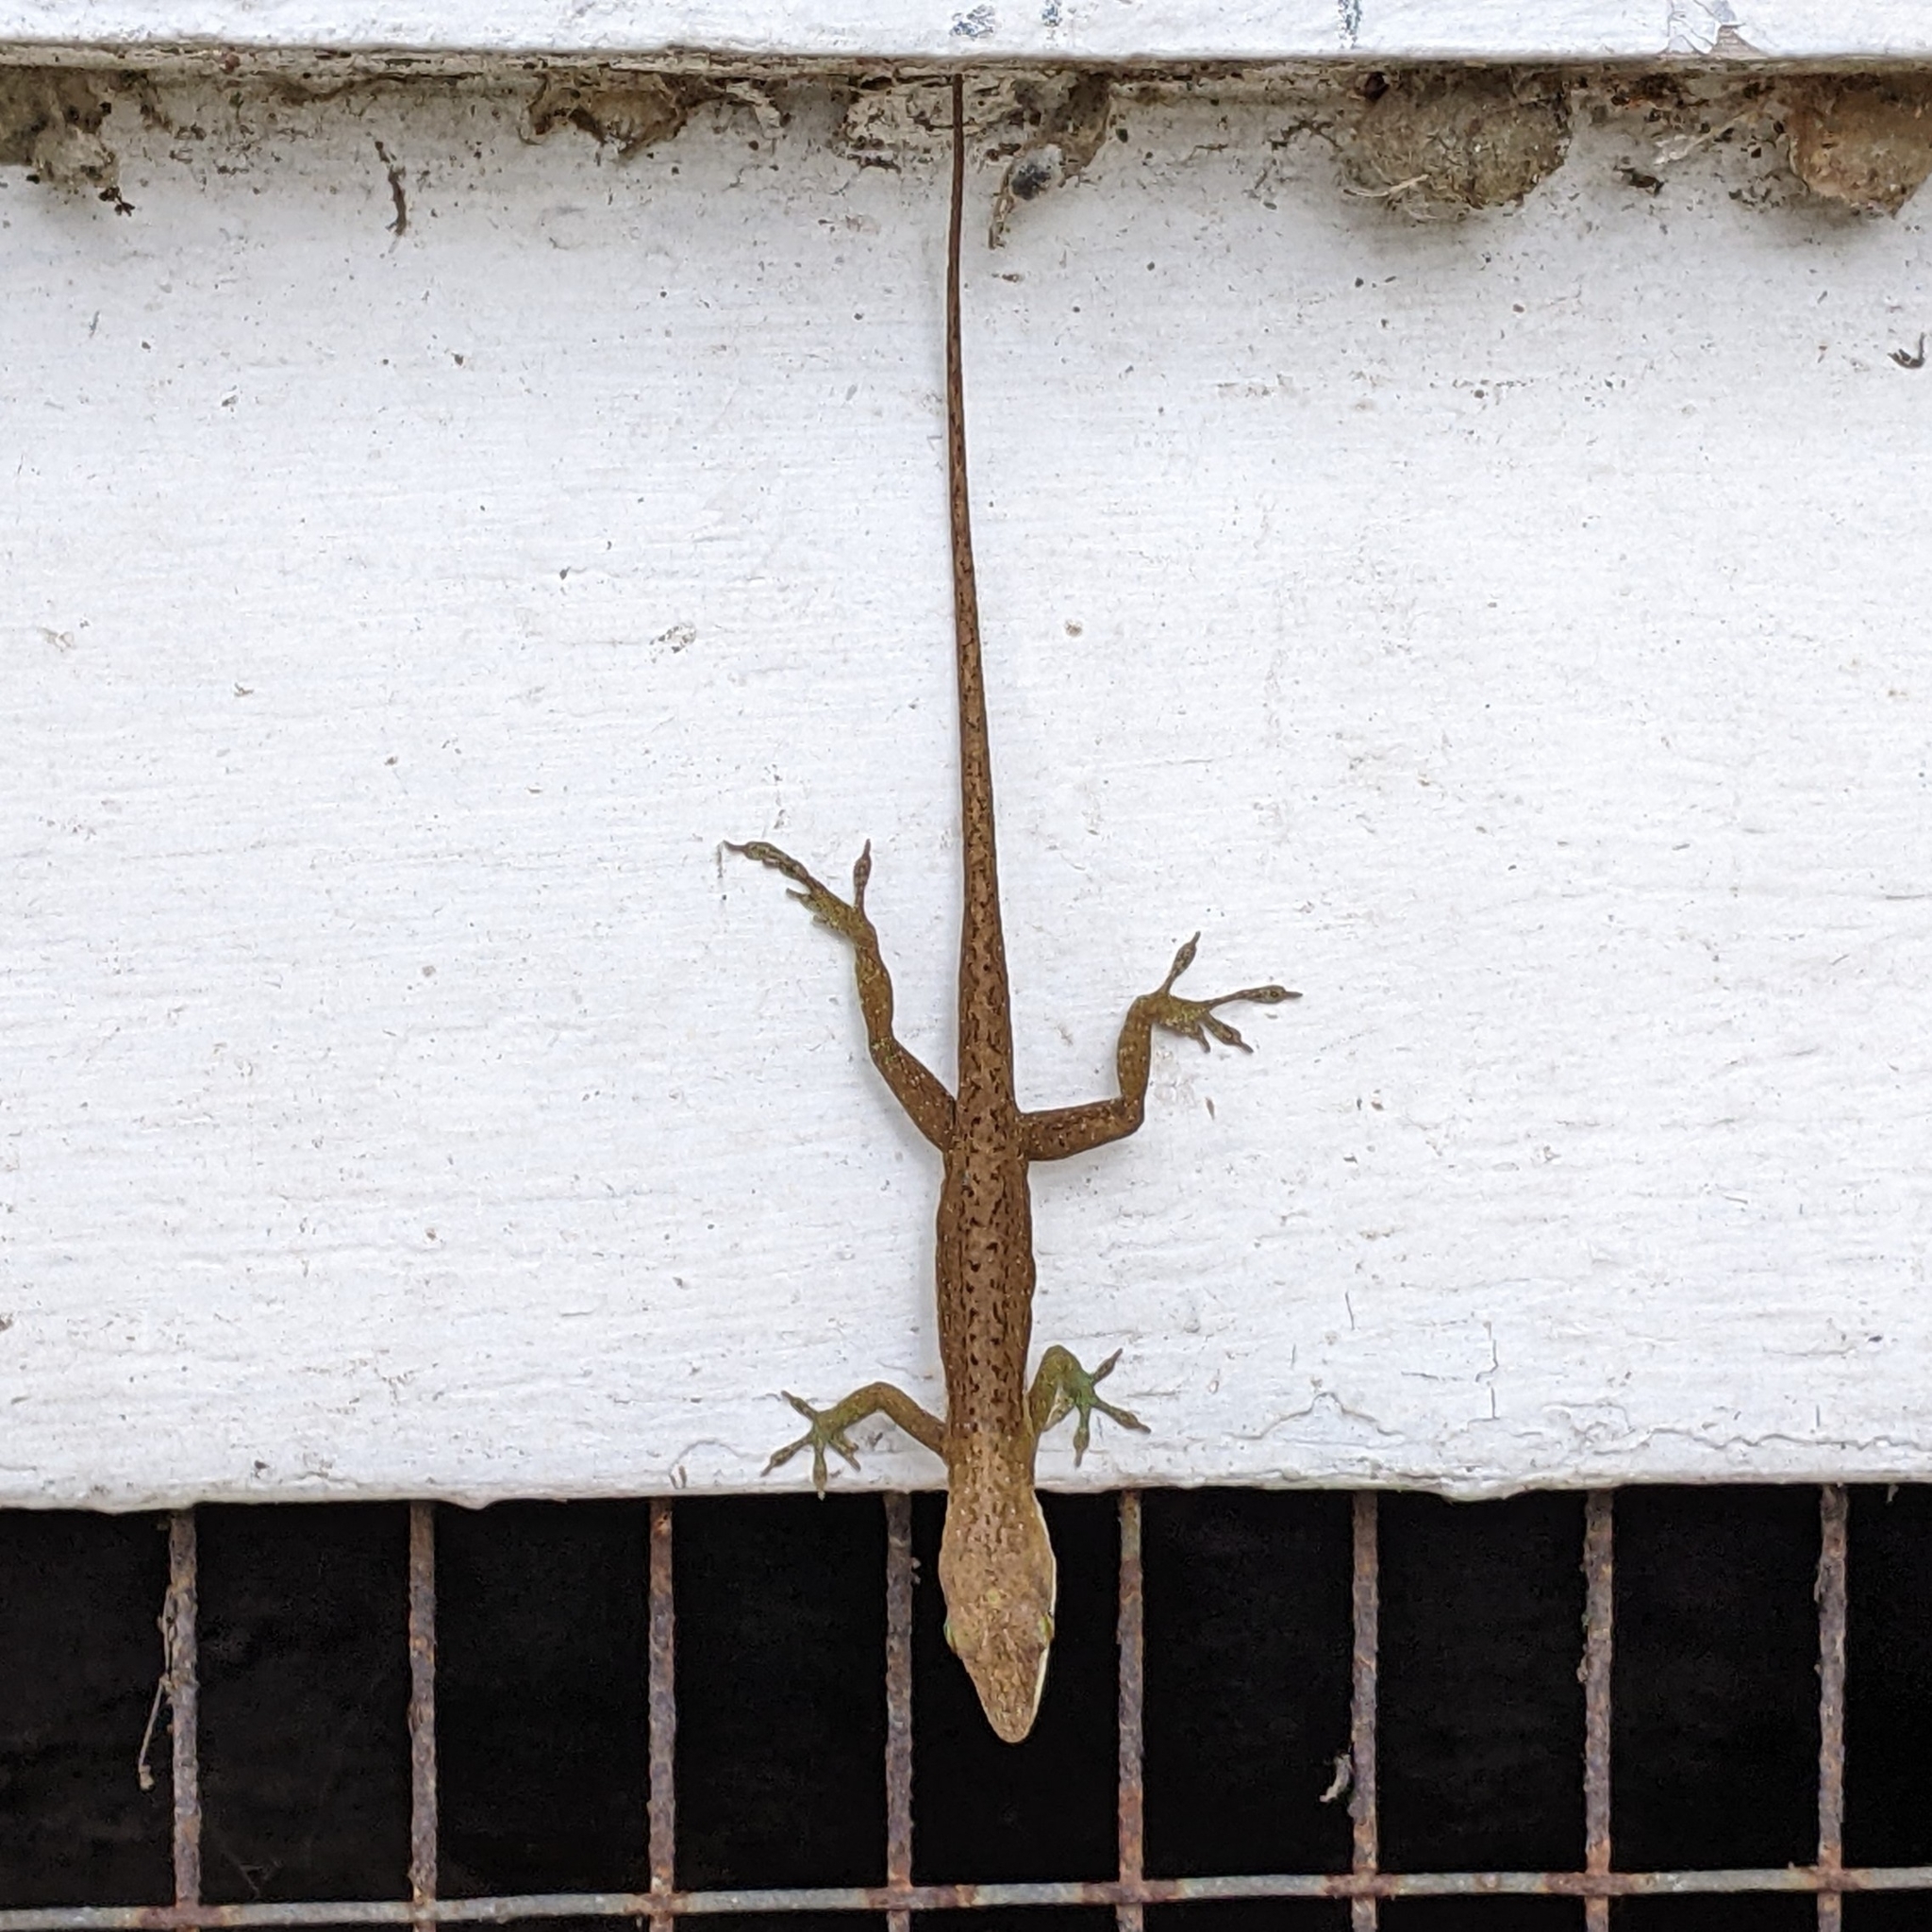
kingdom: Animalia
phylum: Chordata
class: Squamata
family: Dactyloidae
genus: Anolis
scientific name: Anolis carolinensis
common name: Green anole
